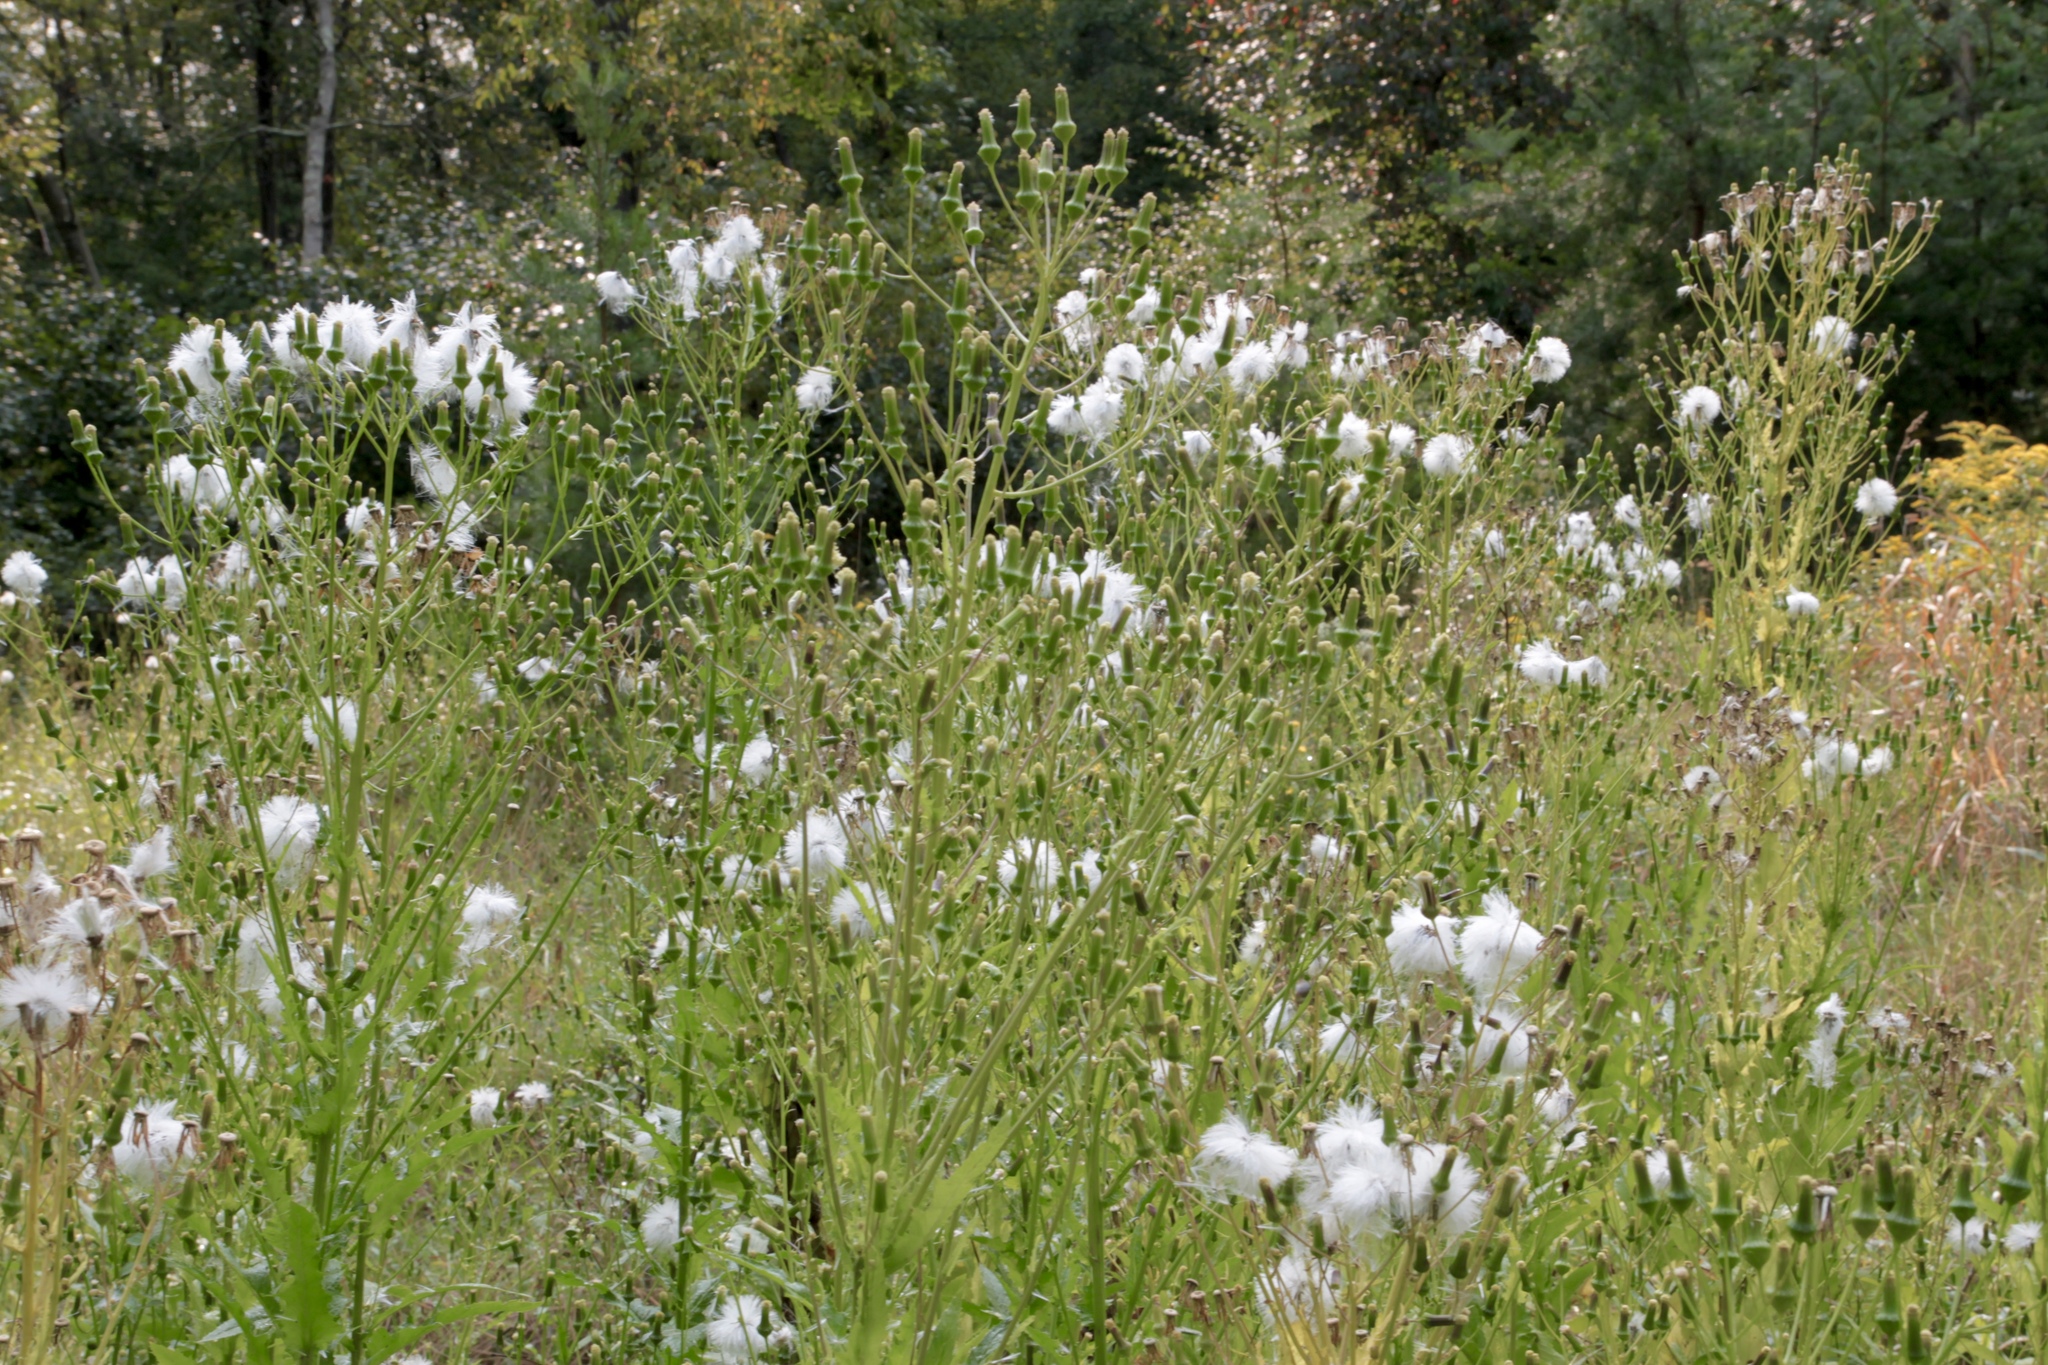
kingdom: Plantae
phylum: Tracheophyta
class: Magnoliopsida
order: Asterales
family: Asteraceae
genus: Erechtites
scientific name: Erechtites hieraciifolius
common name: American burnweed
